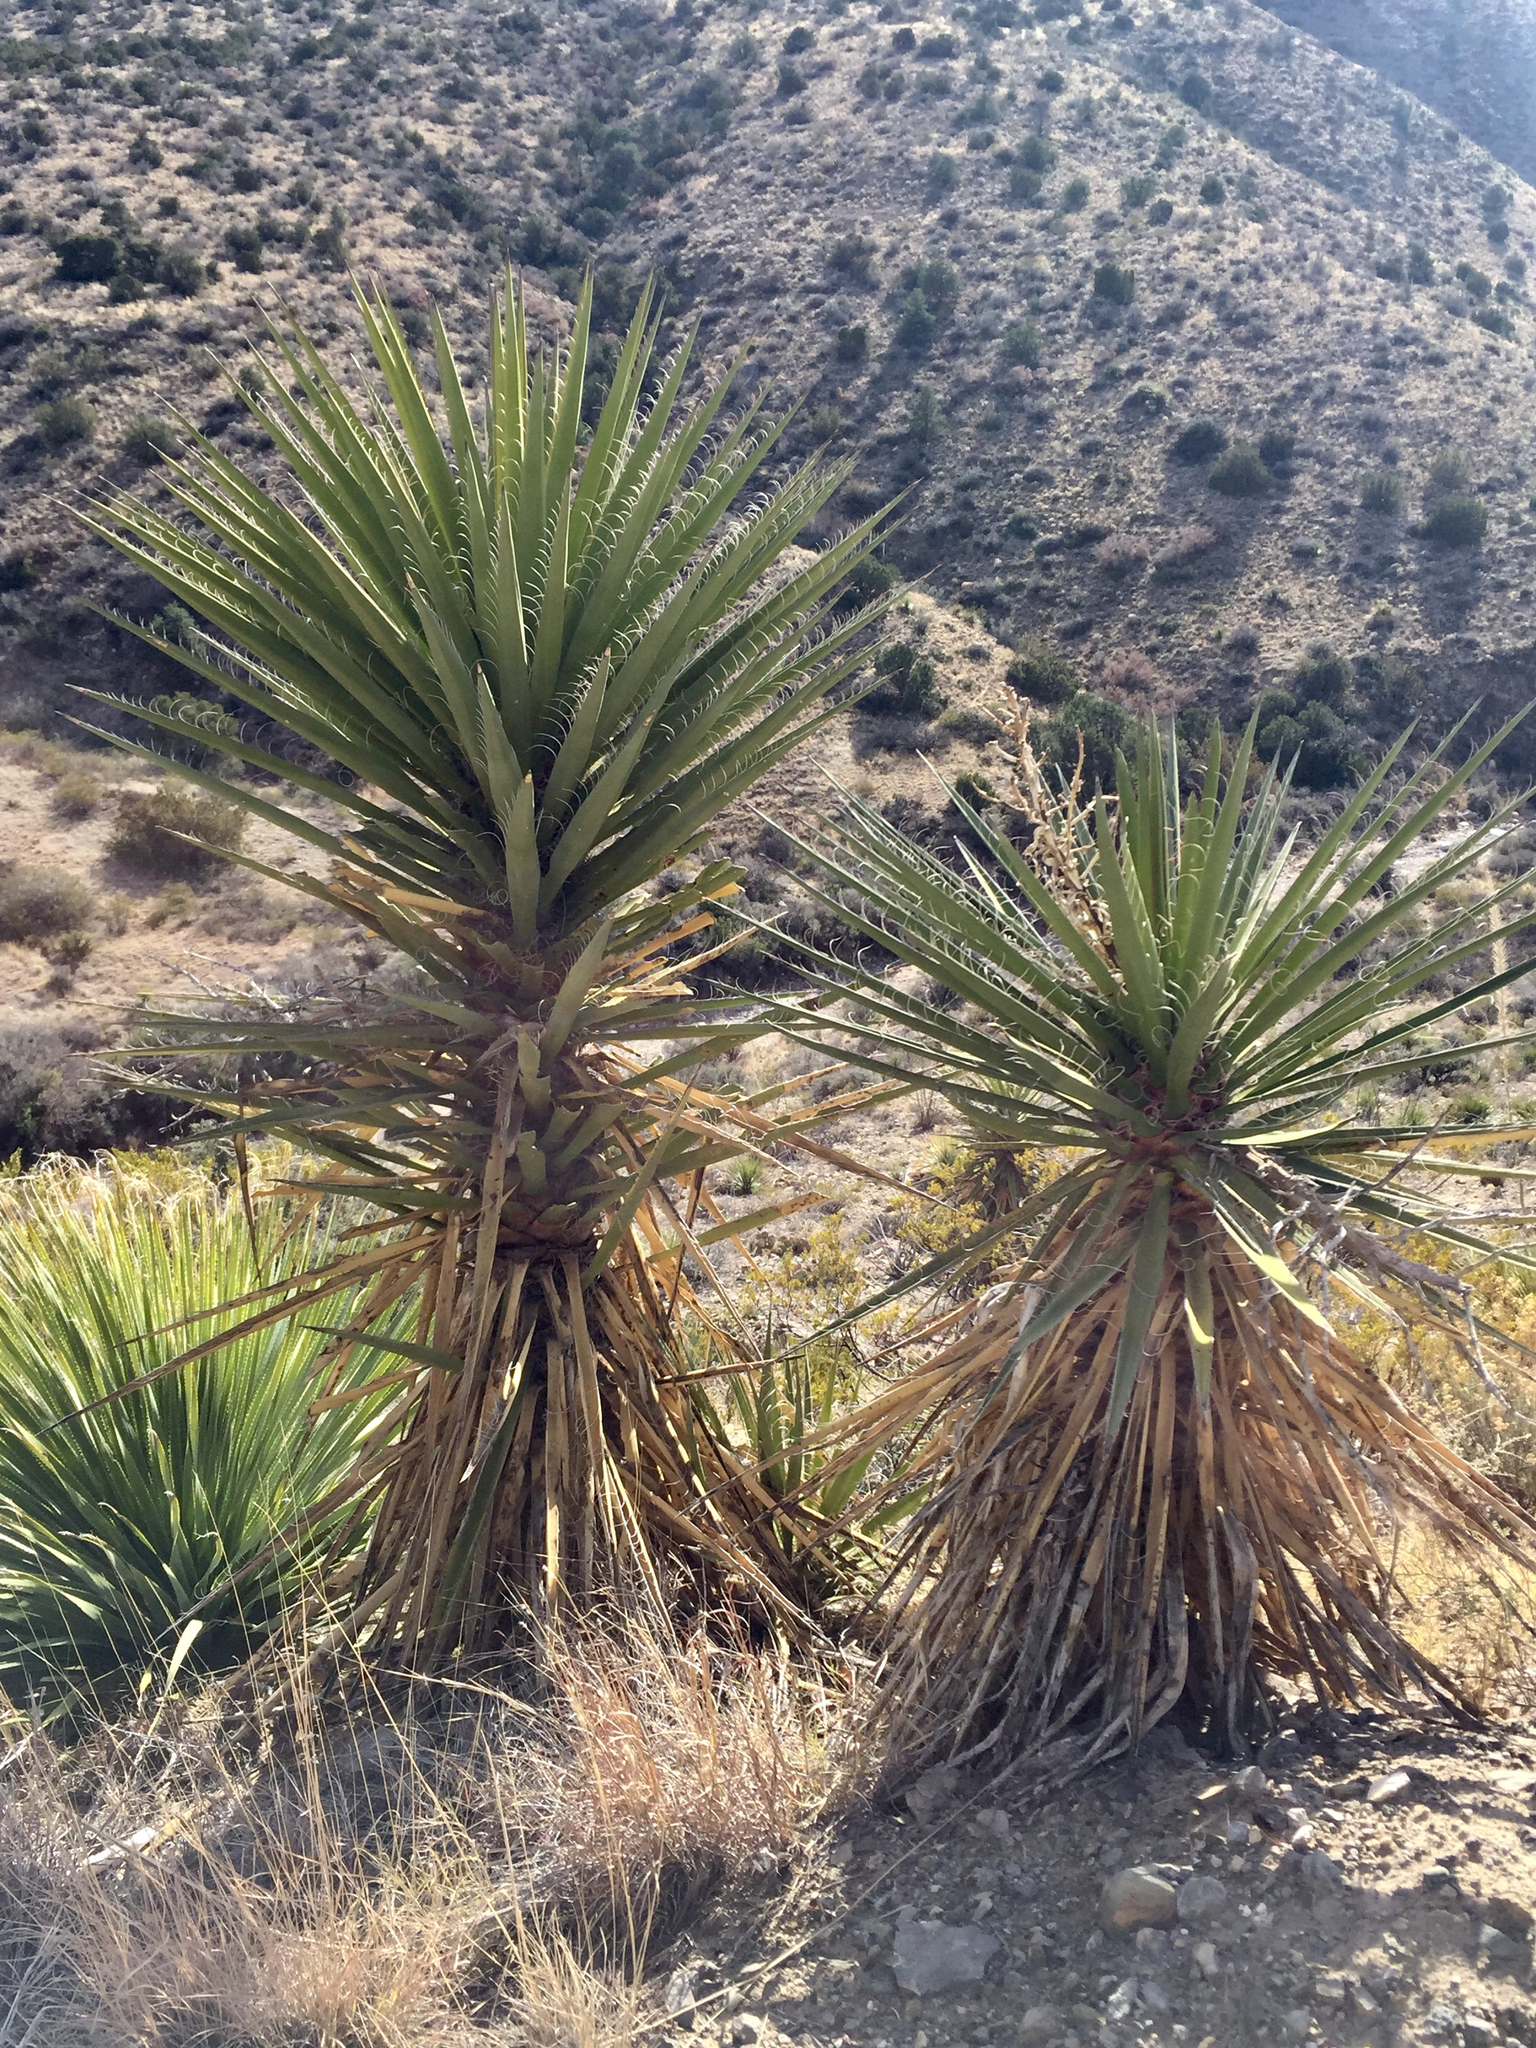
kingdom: Plantae
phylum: Tracheophyta
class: Liliopsida
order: Asparagales
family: Asparagaceae
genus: Yucca
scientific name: Yucca treculiana
